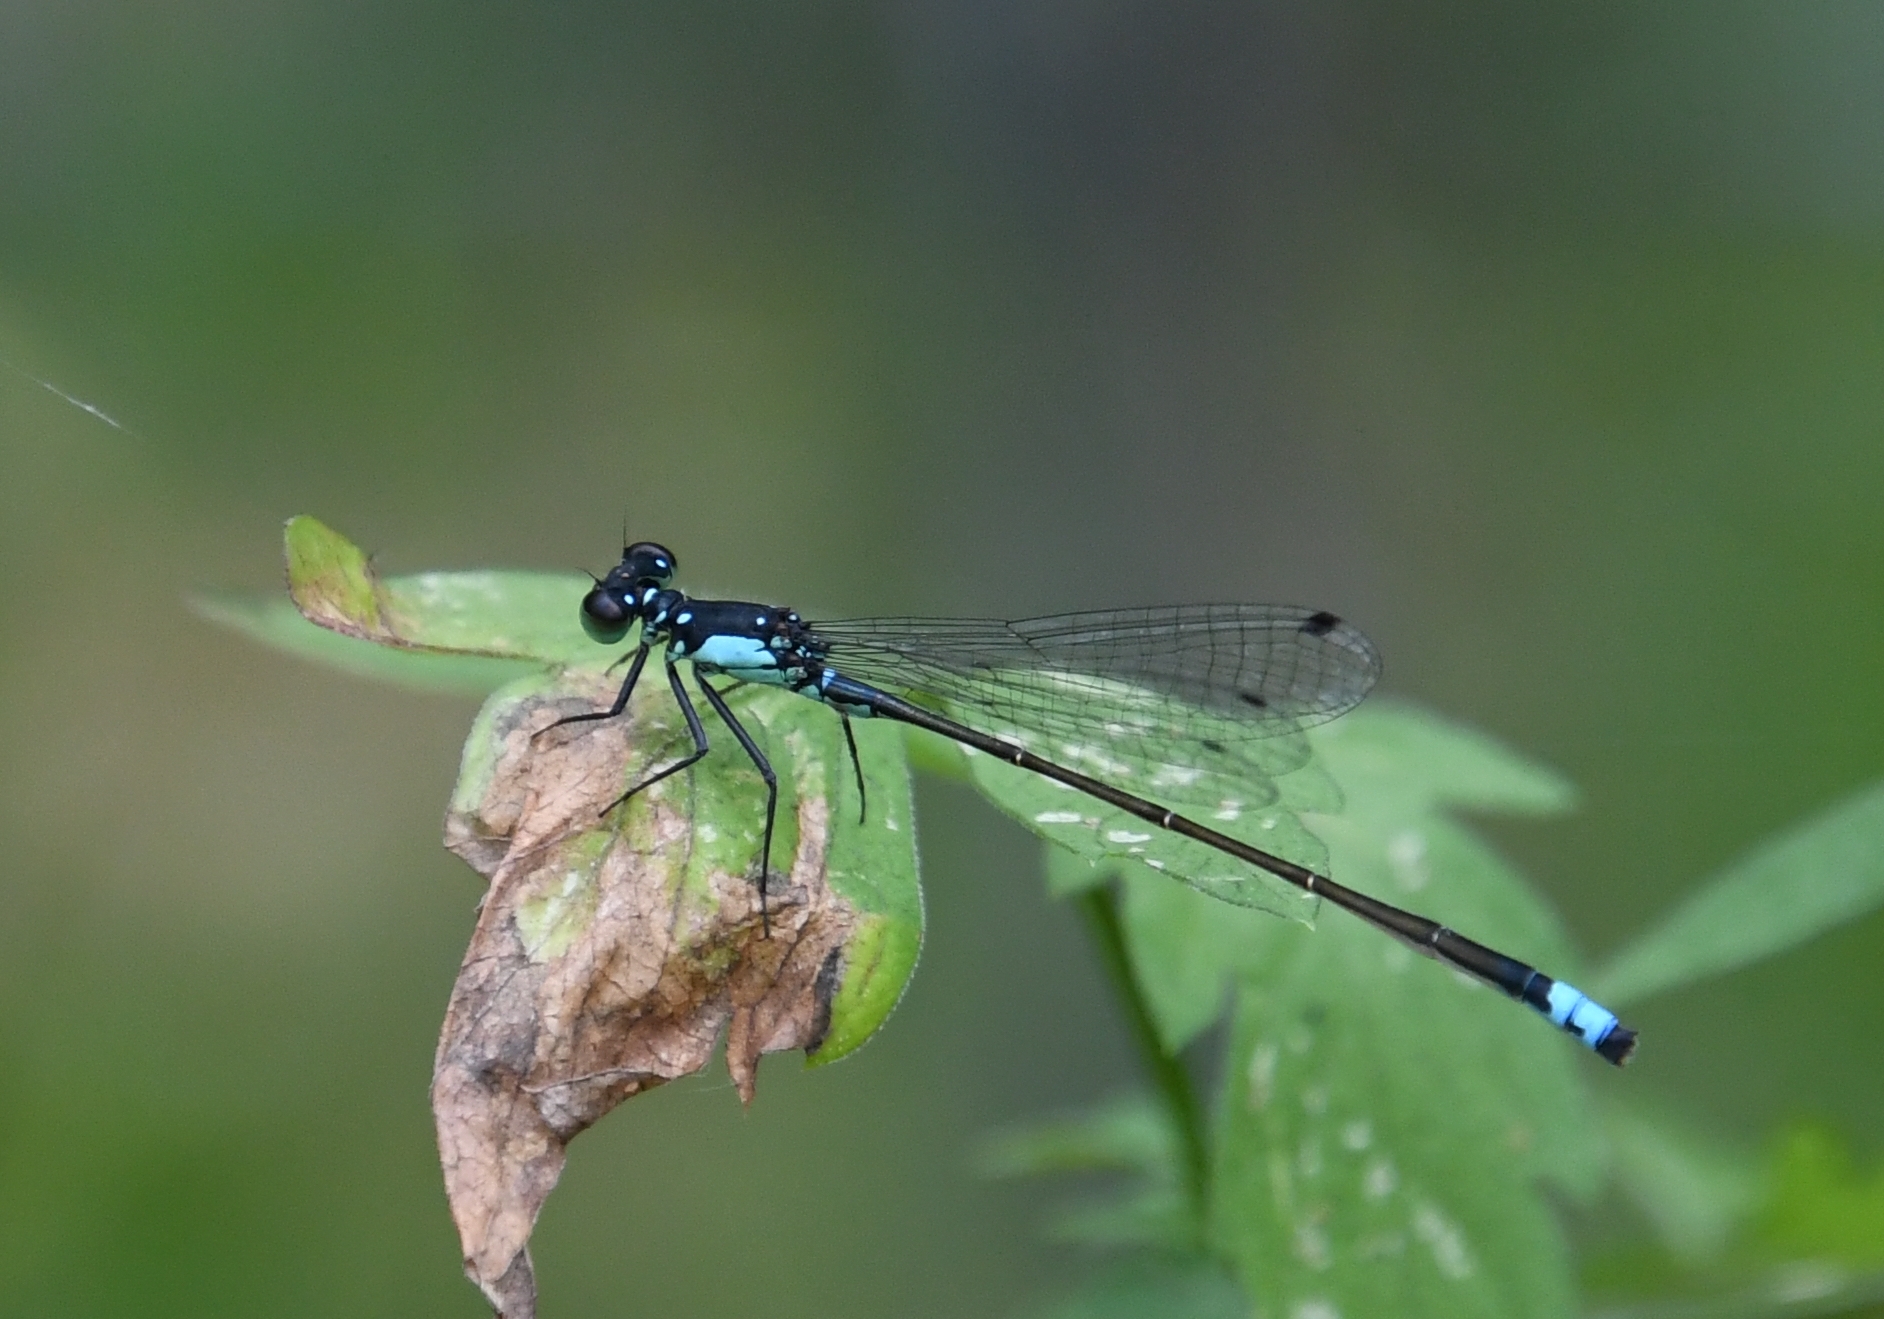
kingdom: Animalia
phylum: Arthropoda
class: Insecta
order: Odonata
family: Coenagrionidae
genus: Ischnura
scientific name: Ischnura cervula
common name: Pacific forktail
